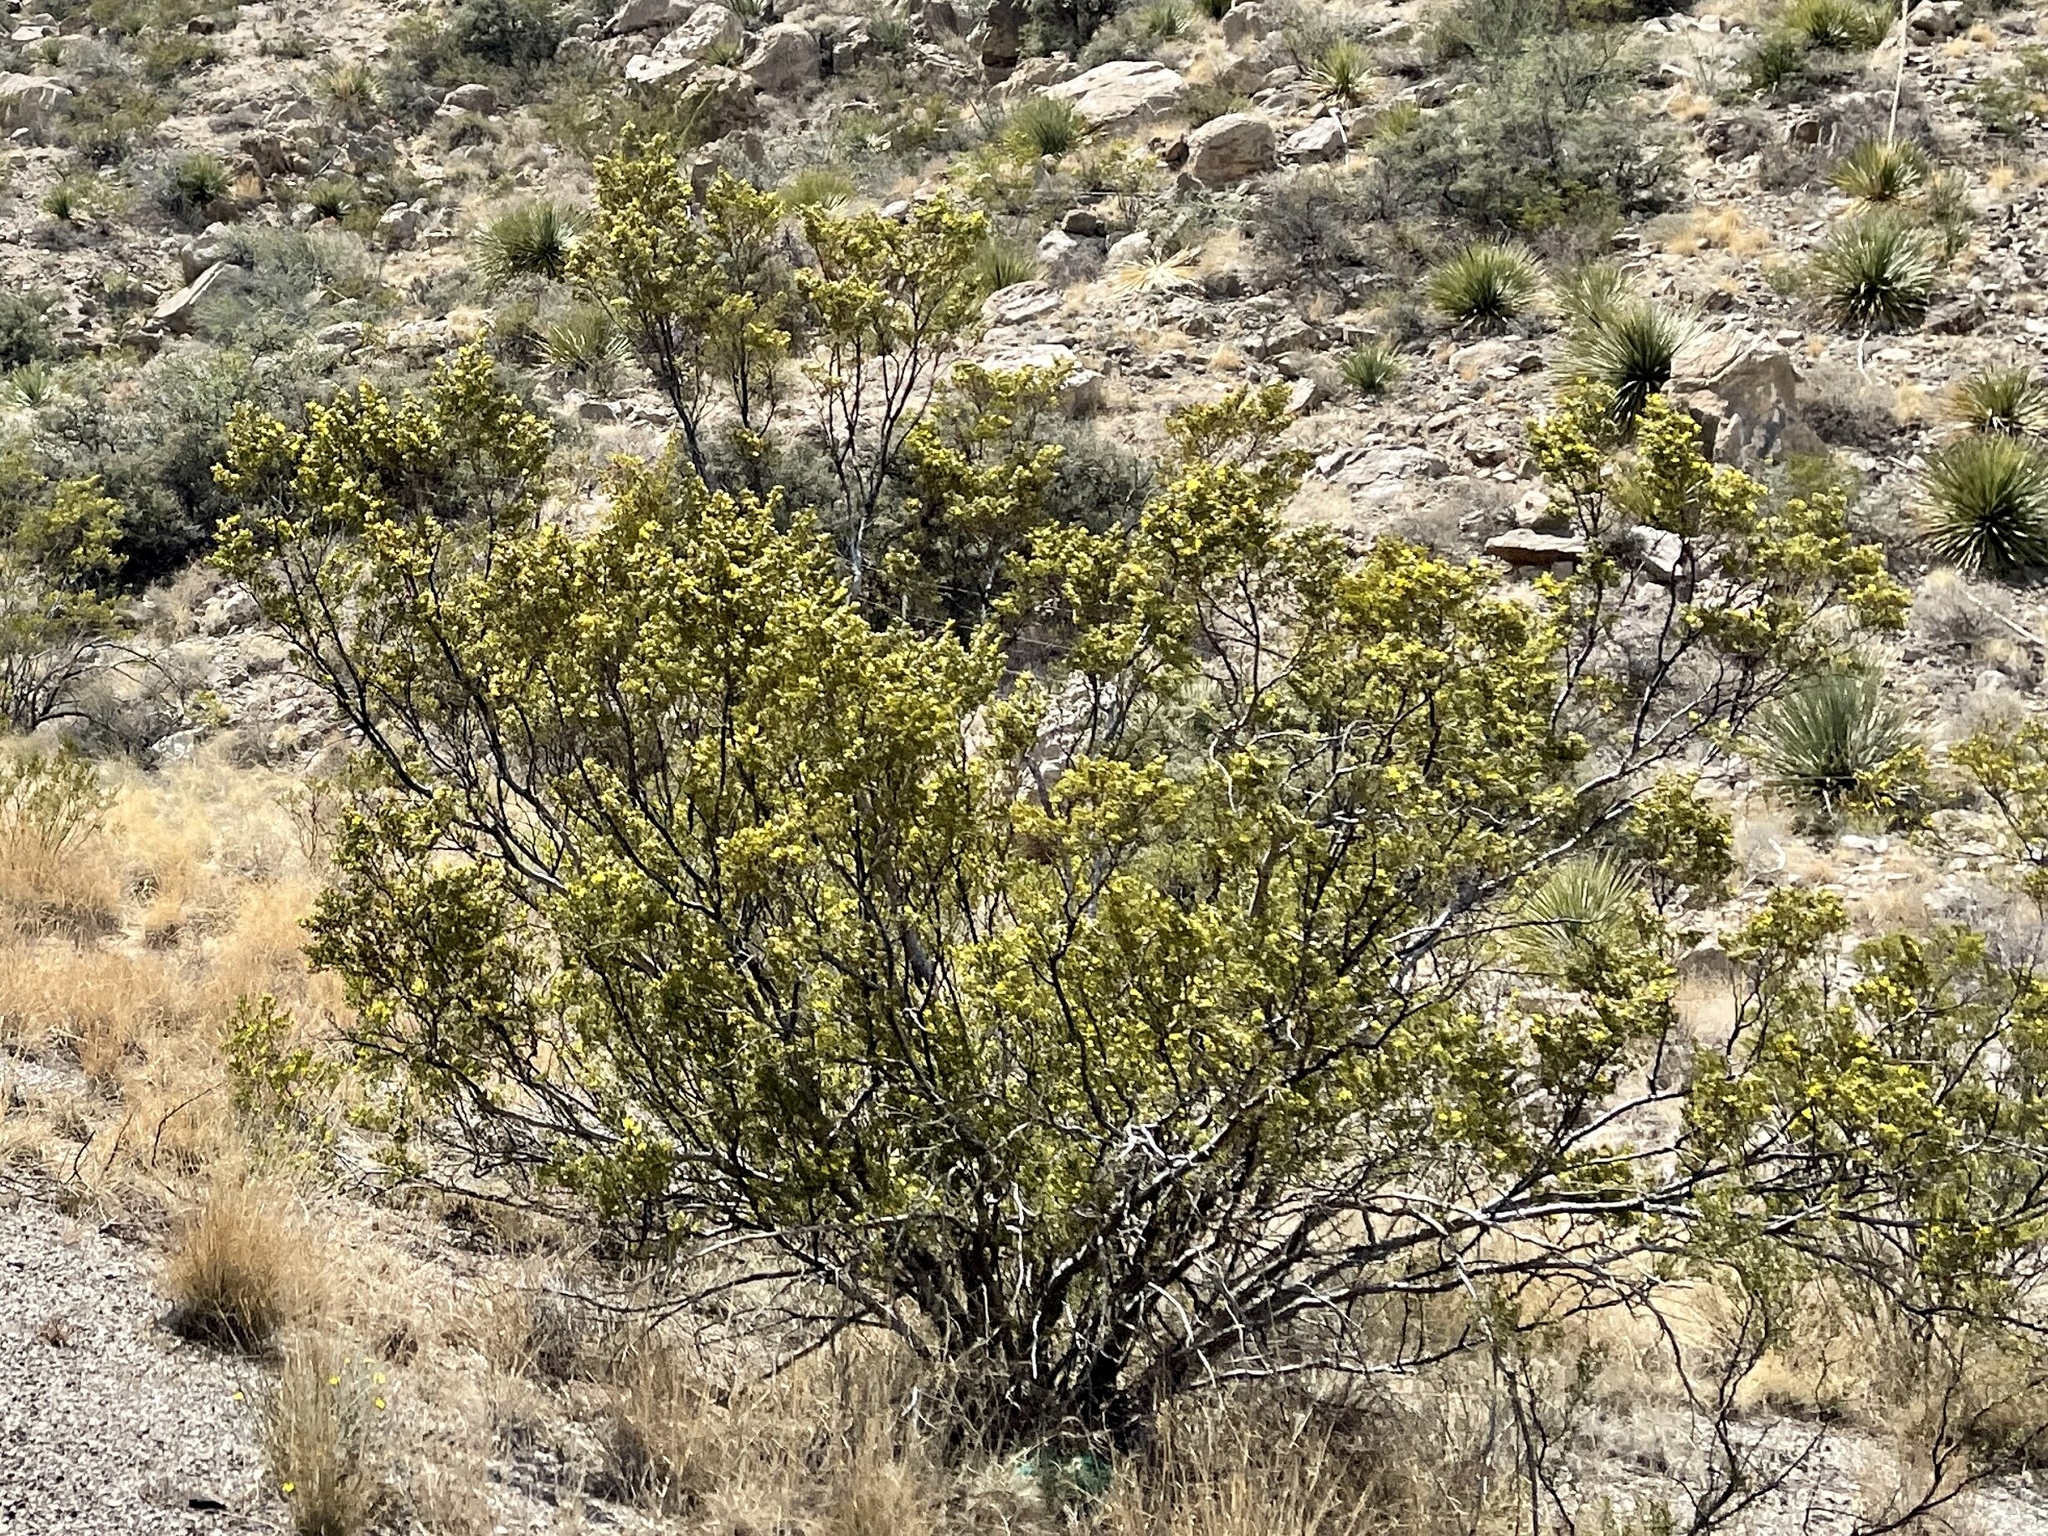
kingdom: Plantae
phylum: Tracheophyta
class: Magnoliopsida
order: Zygophyllales
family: Zygophyllaceae
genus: Larrea
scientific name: Larrea tridentata
